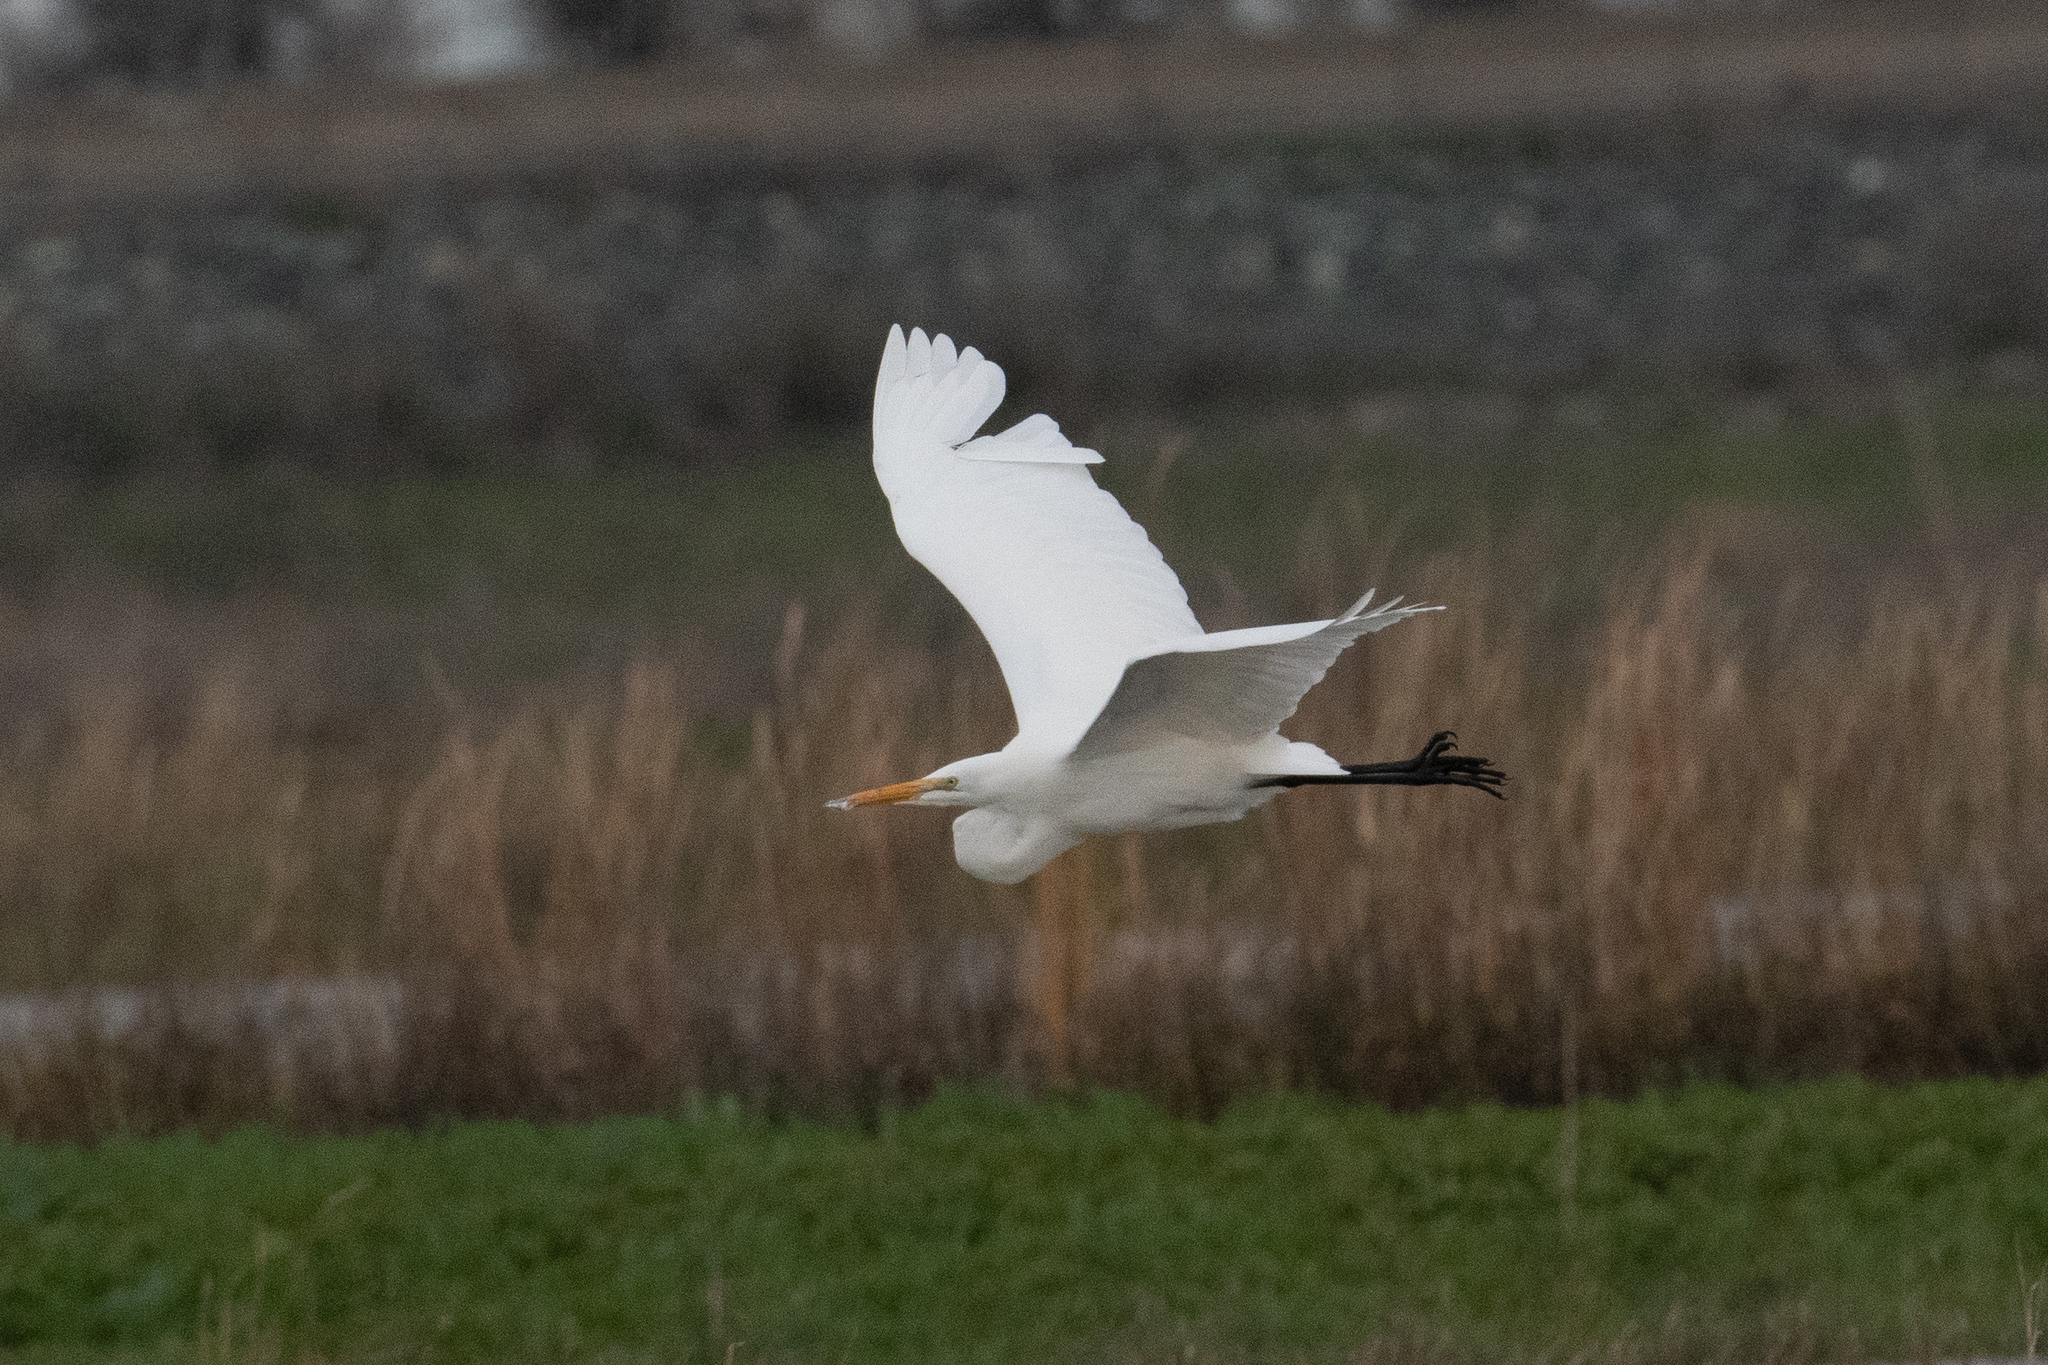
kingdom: Animalia
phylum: Chordata
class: Aves
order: Pelecaniformes
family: Ardeidae
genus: Ardea
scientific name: Ardea alba
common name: Great egret
